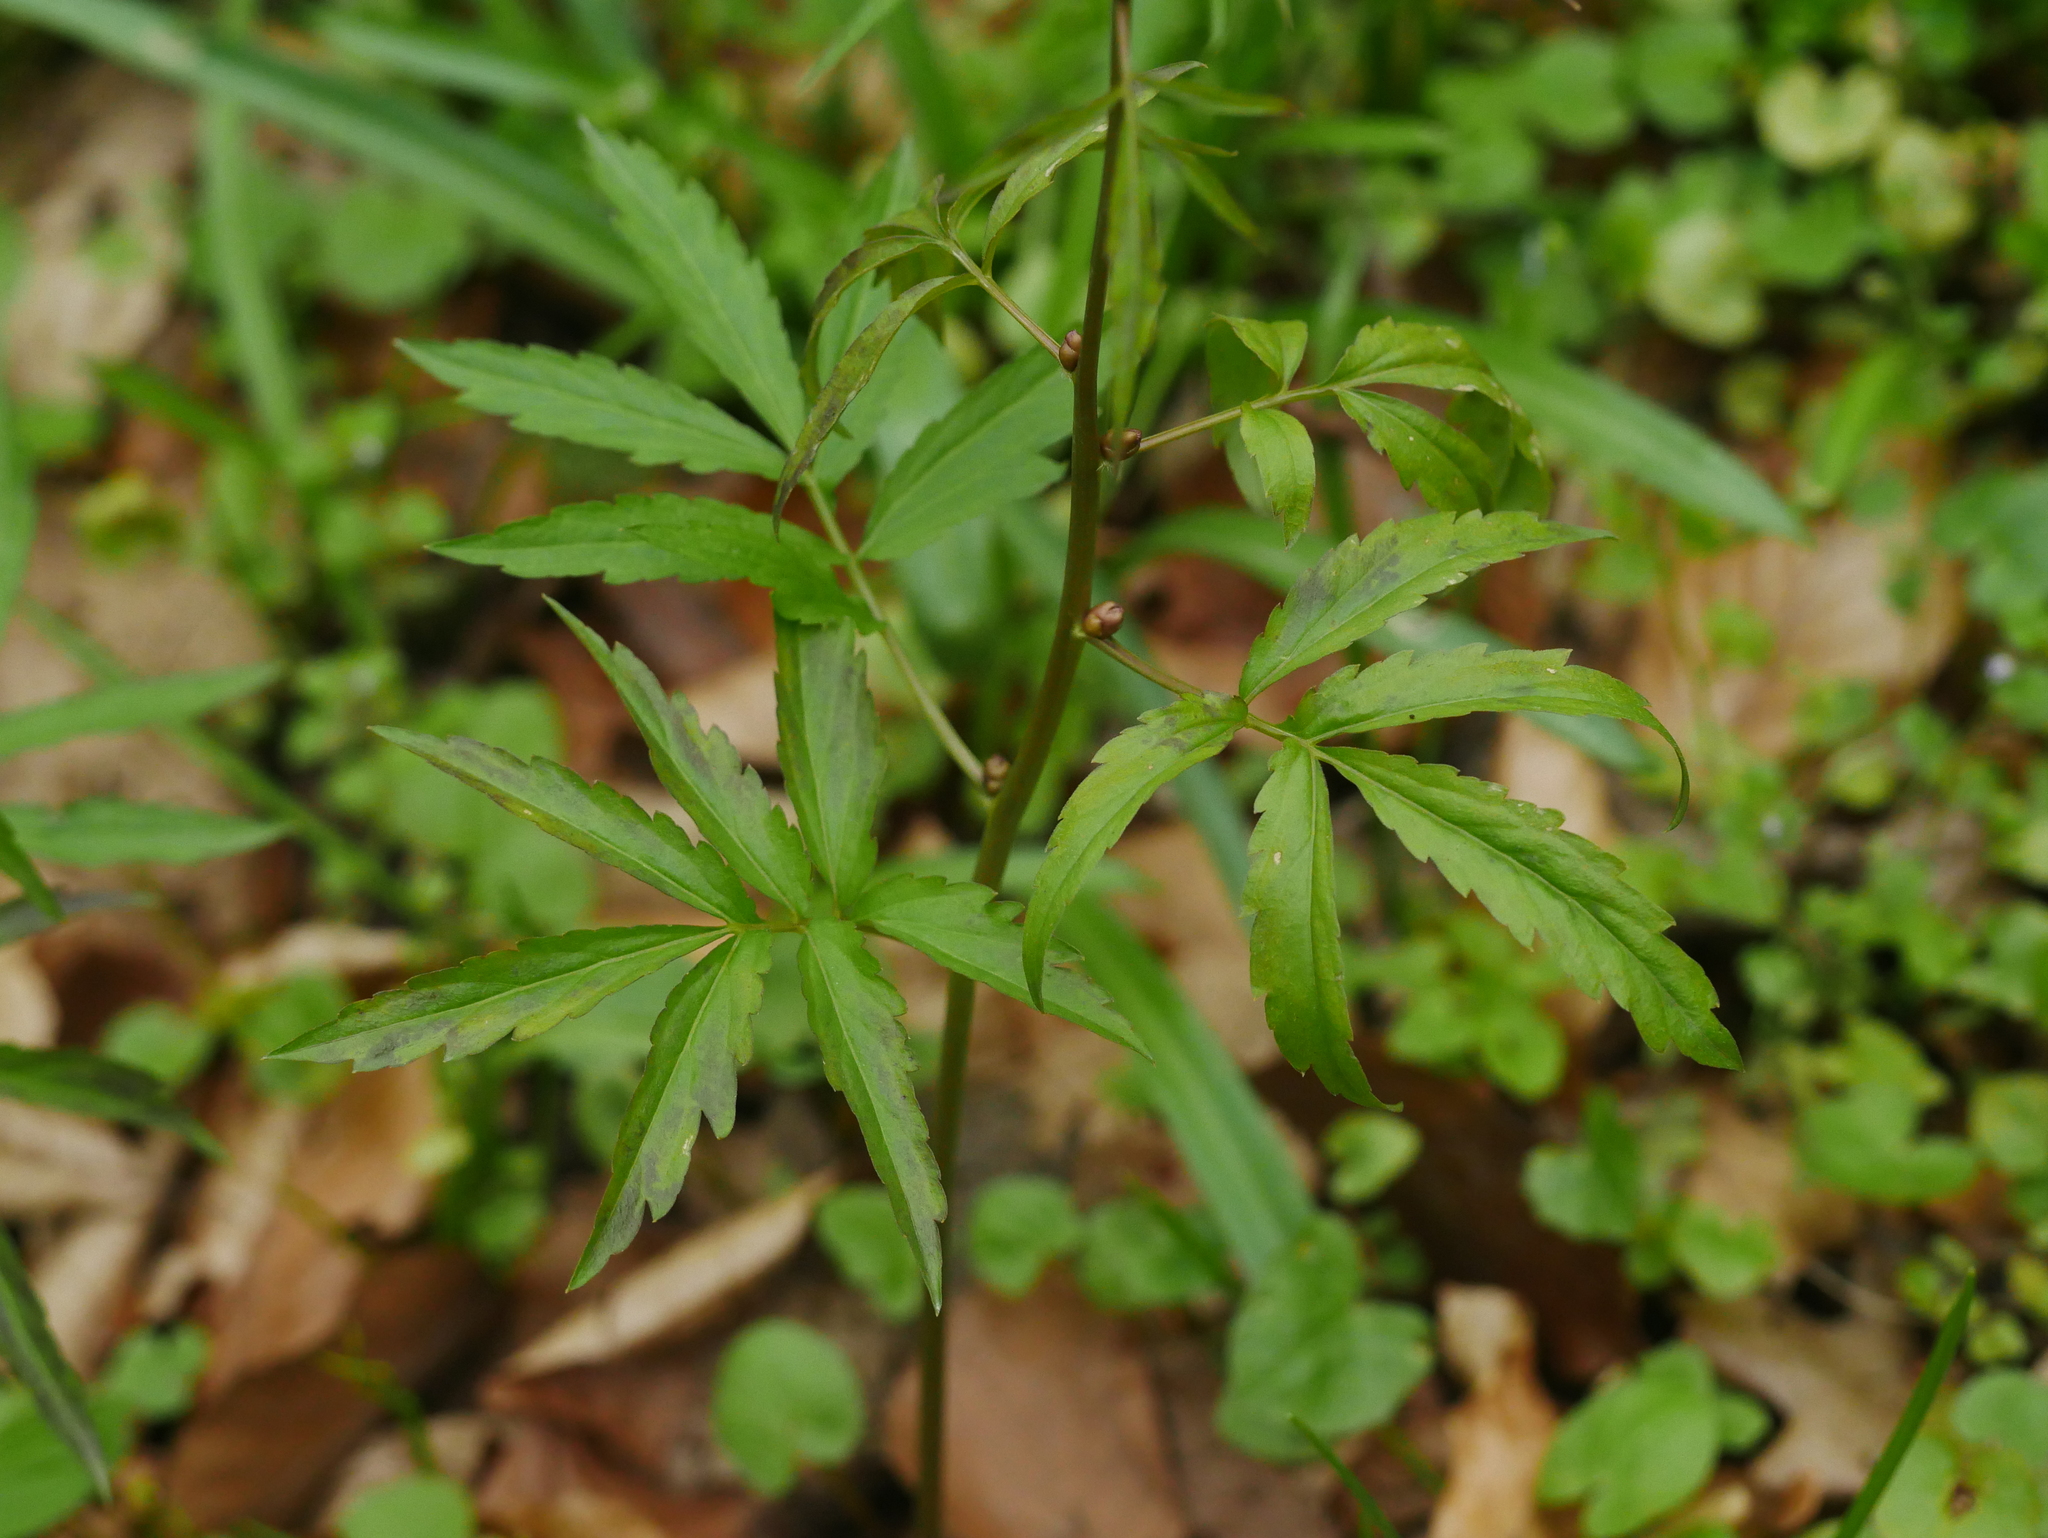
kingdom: Plantae
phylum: Tracheophyta
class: Magnoliopsida
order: Brassicales
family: Brassicaceae
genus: Cardamine
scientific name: Cardamine bulbifera
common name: Coralroot bittercress
